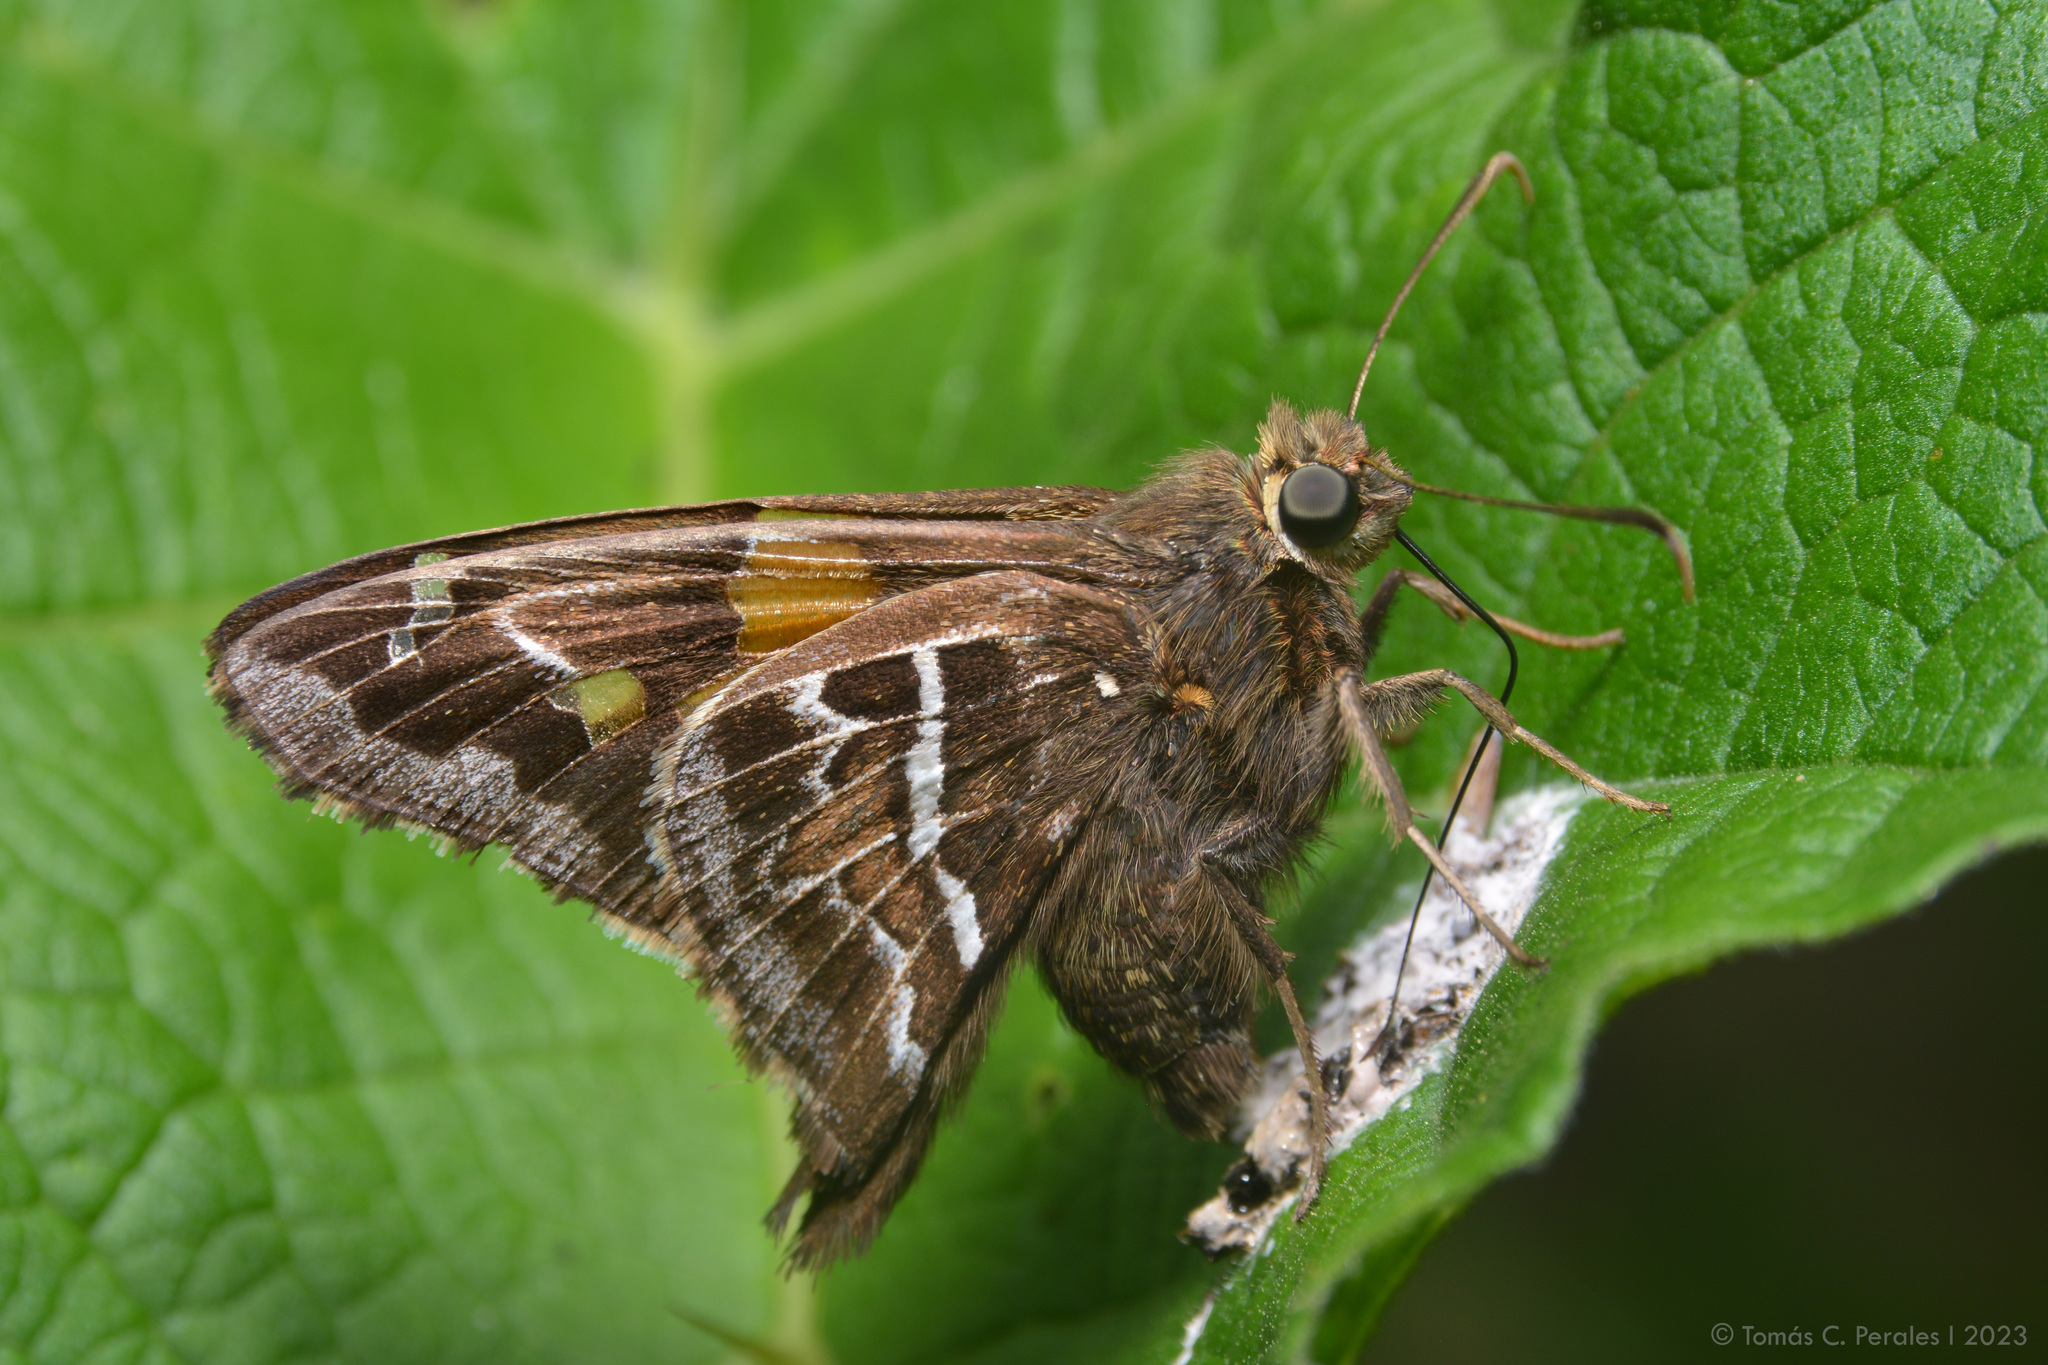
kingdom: Animalia
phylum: Arthropoda
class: Insecta
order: Lepidoptera
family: Hesperiidae
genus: Epargyreus
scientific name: Epargyreus barisses
